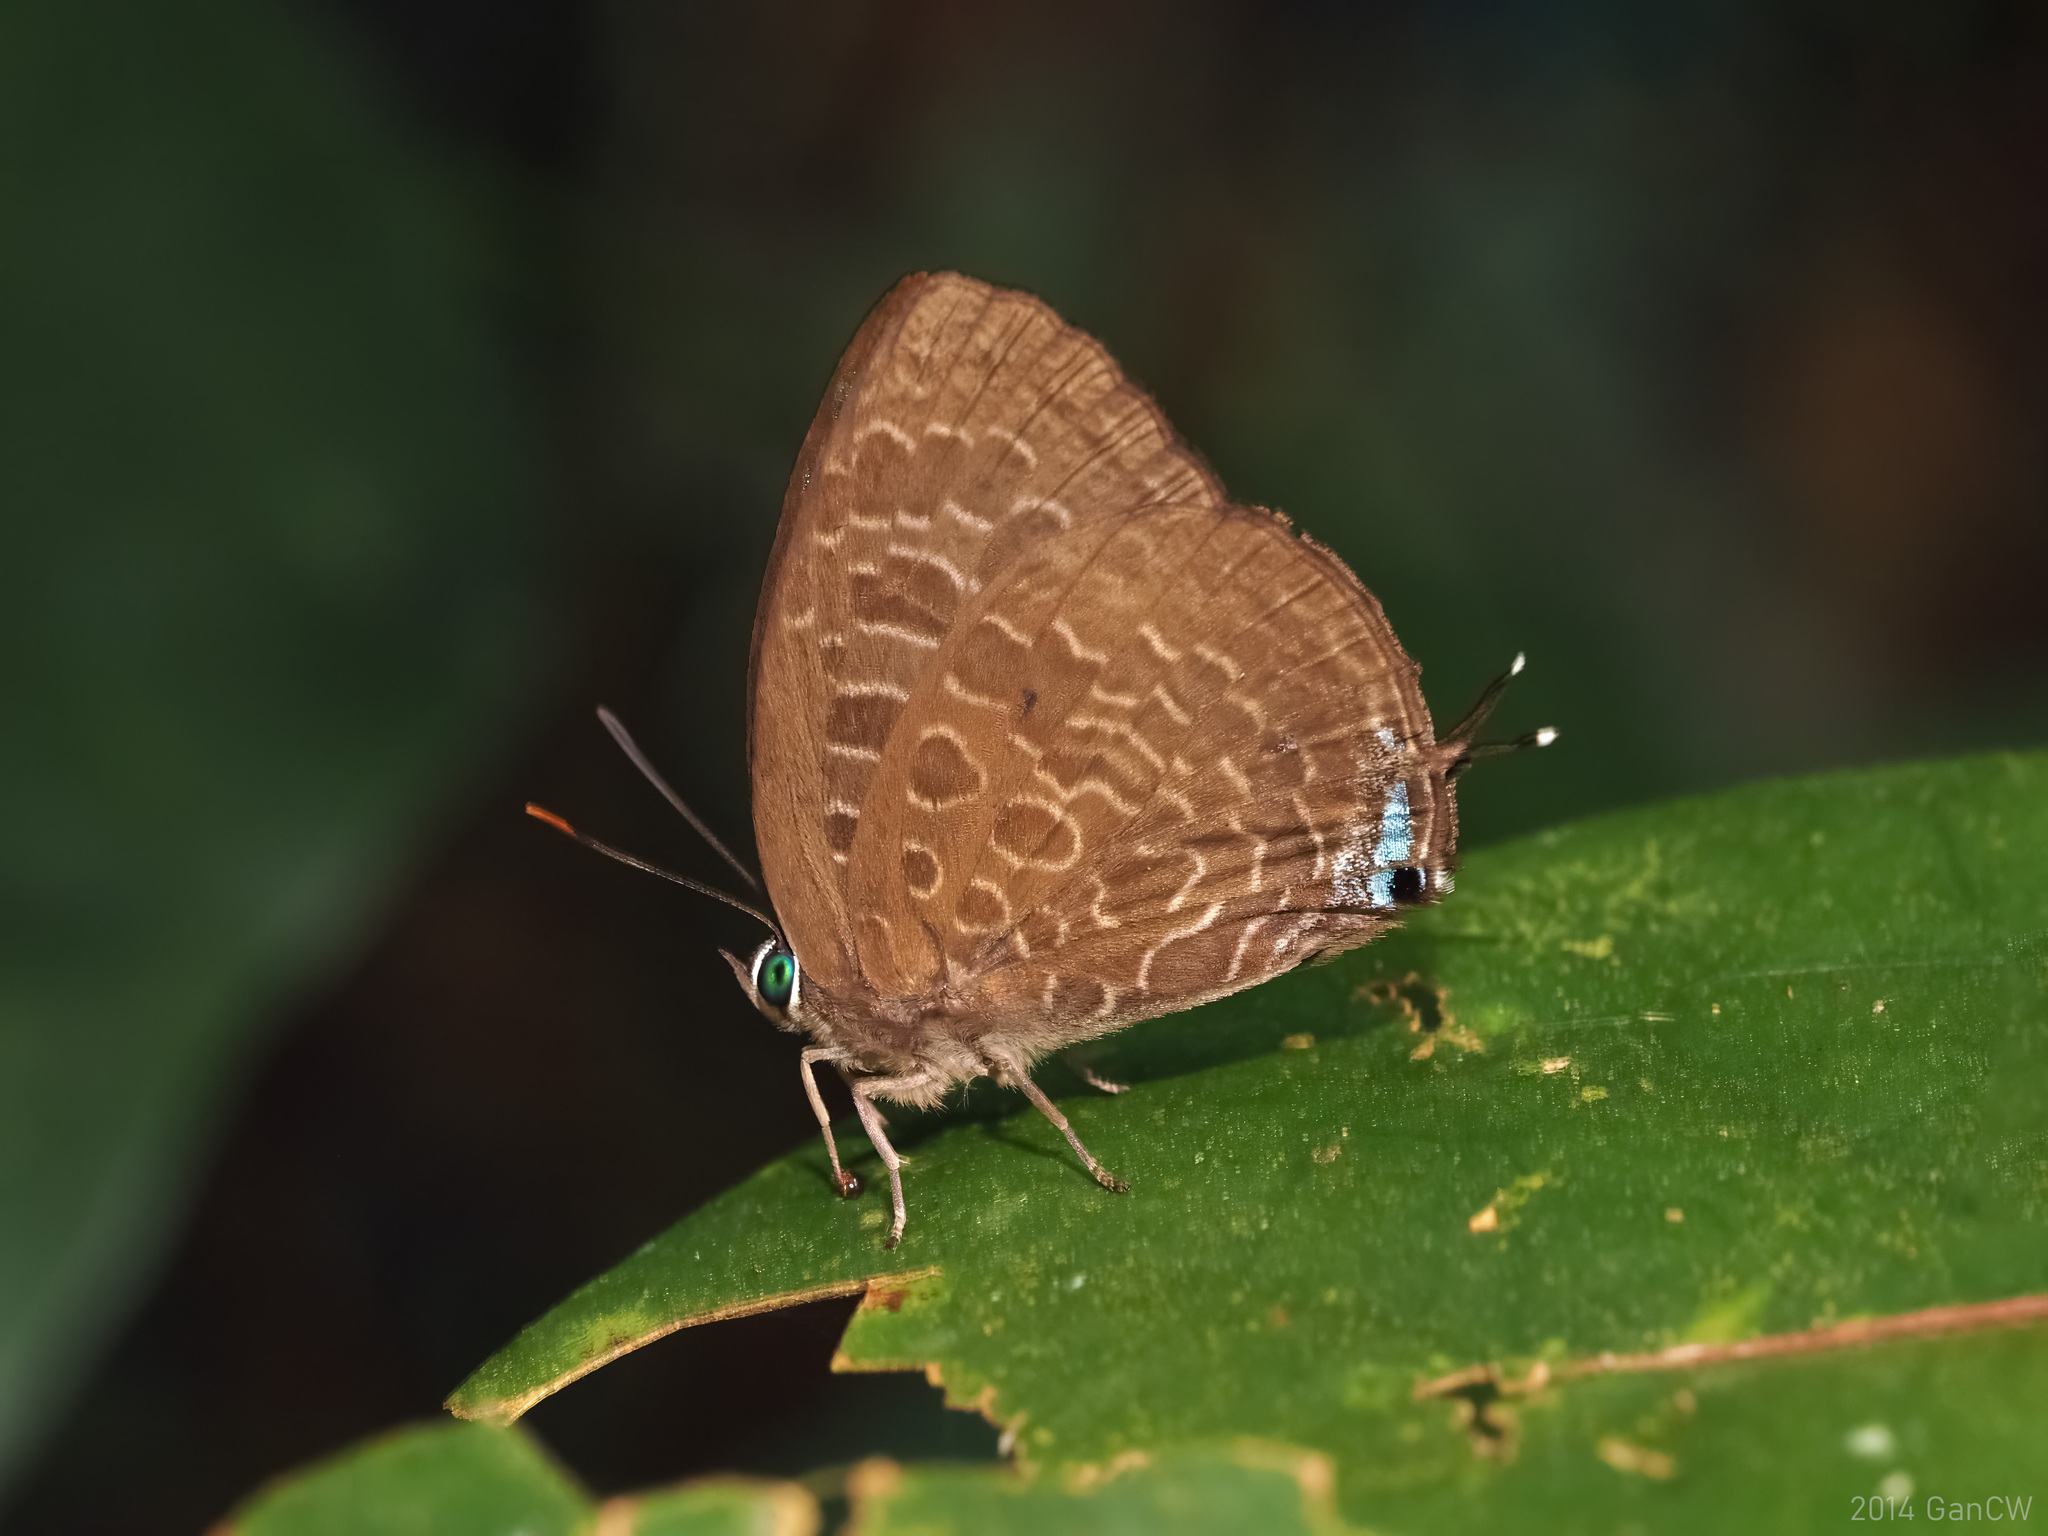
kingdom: Animalia
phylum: Arthropoda
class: Insecta
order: Lepidoptera
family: Lycaenidae
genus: Arhopala
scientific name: Arhopala overdijkinki
